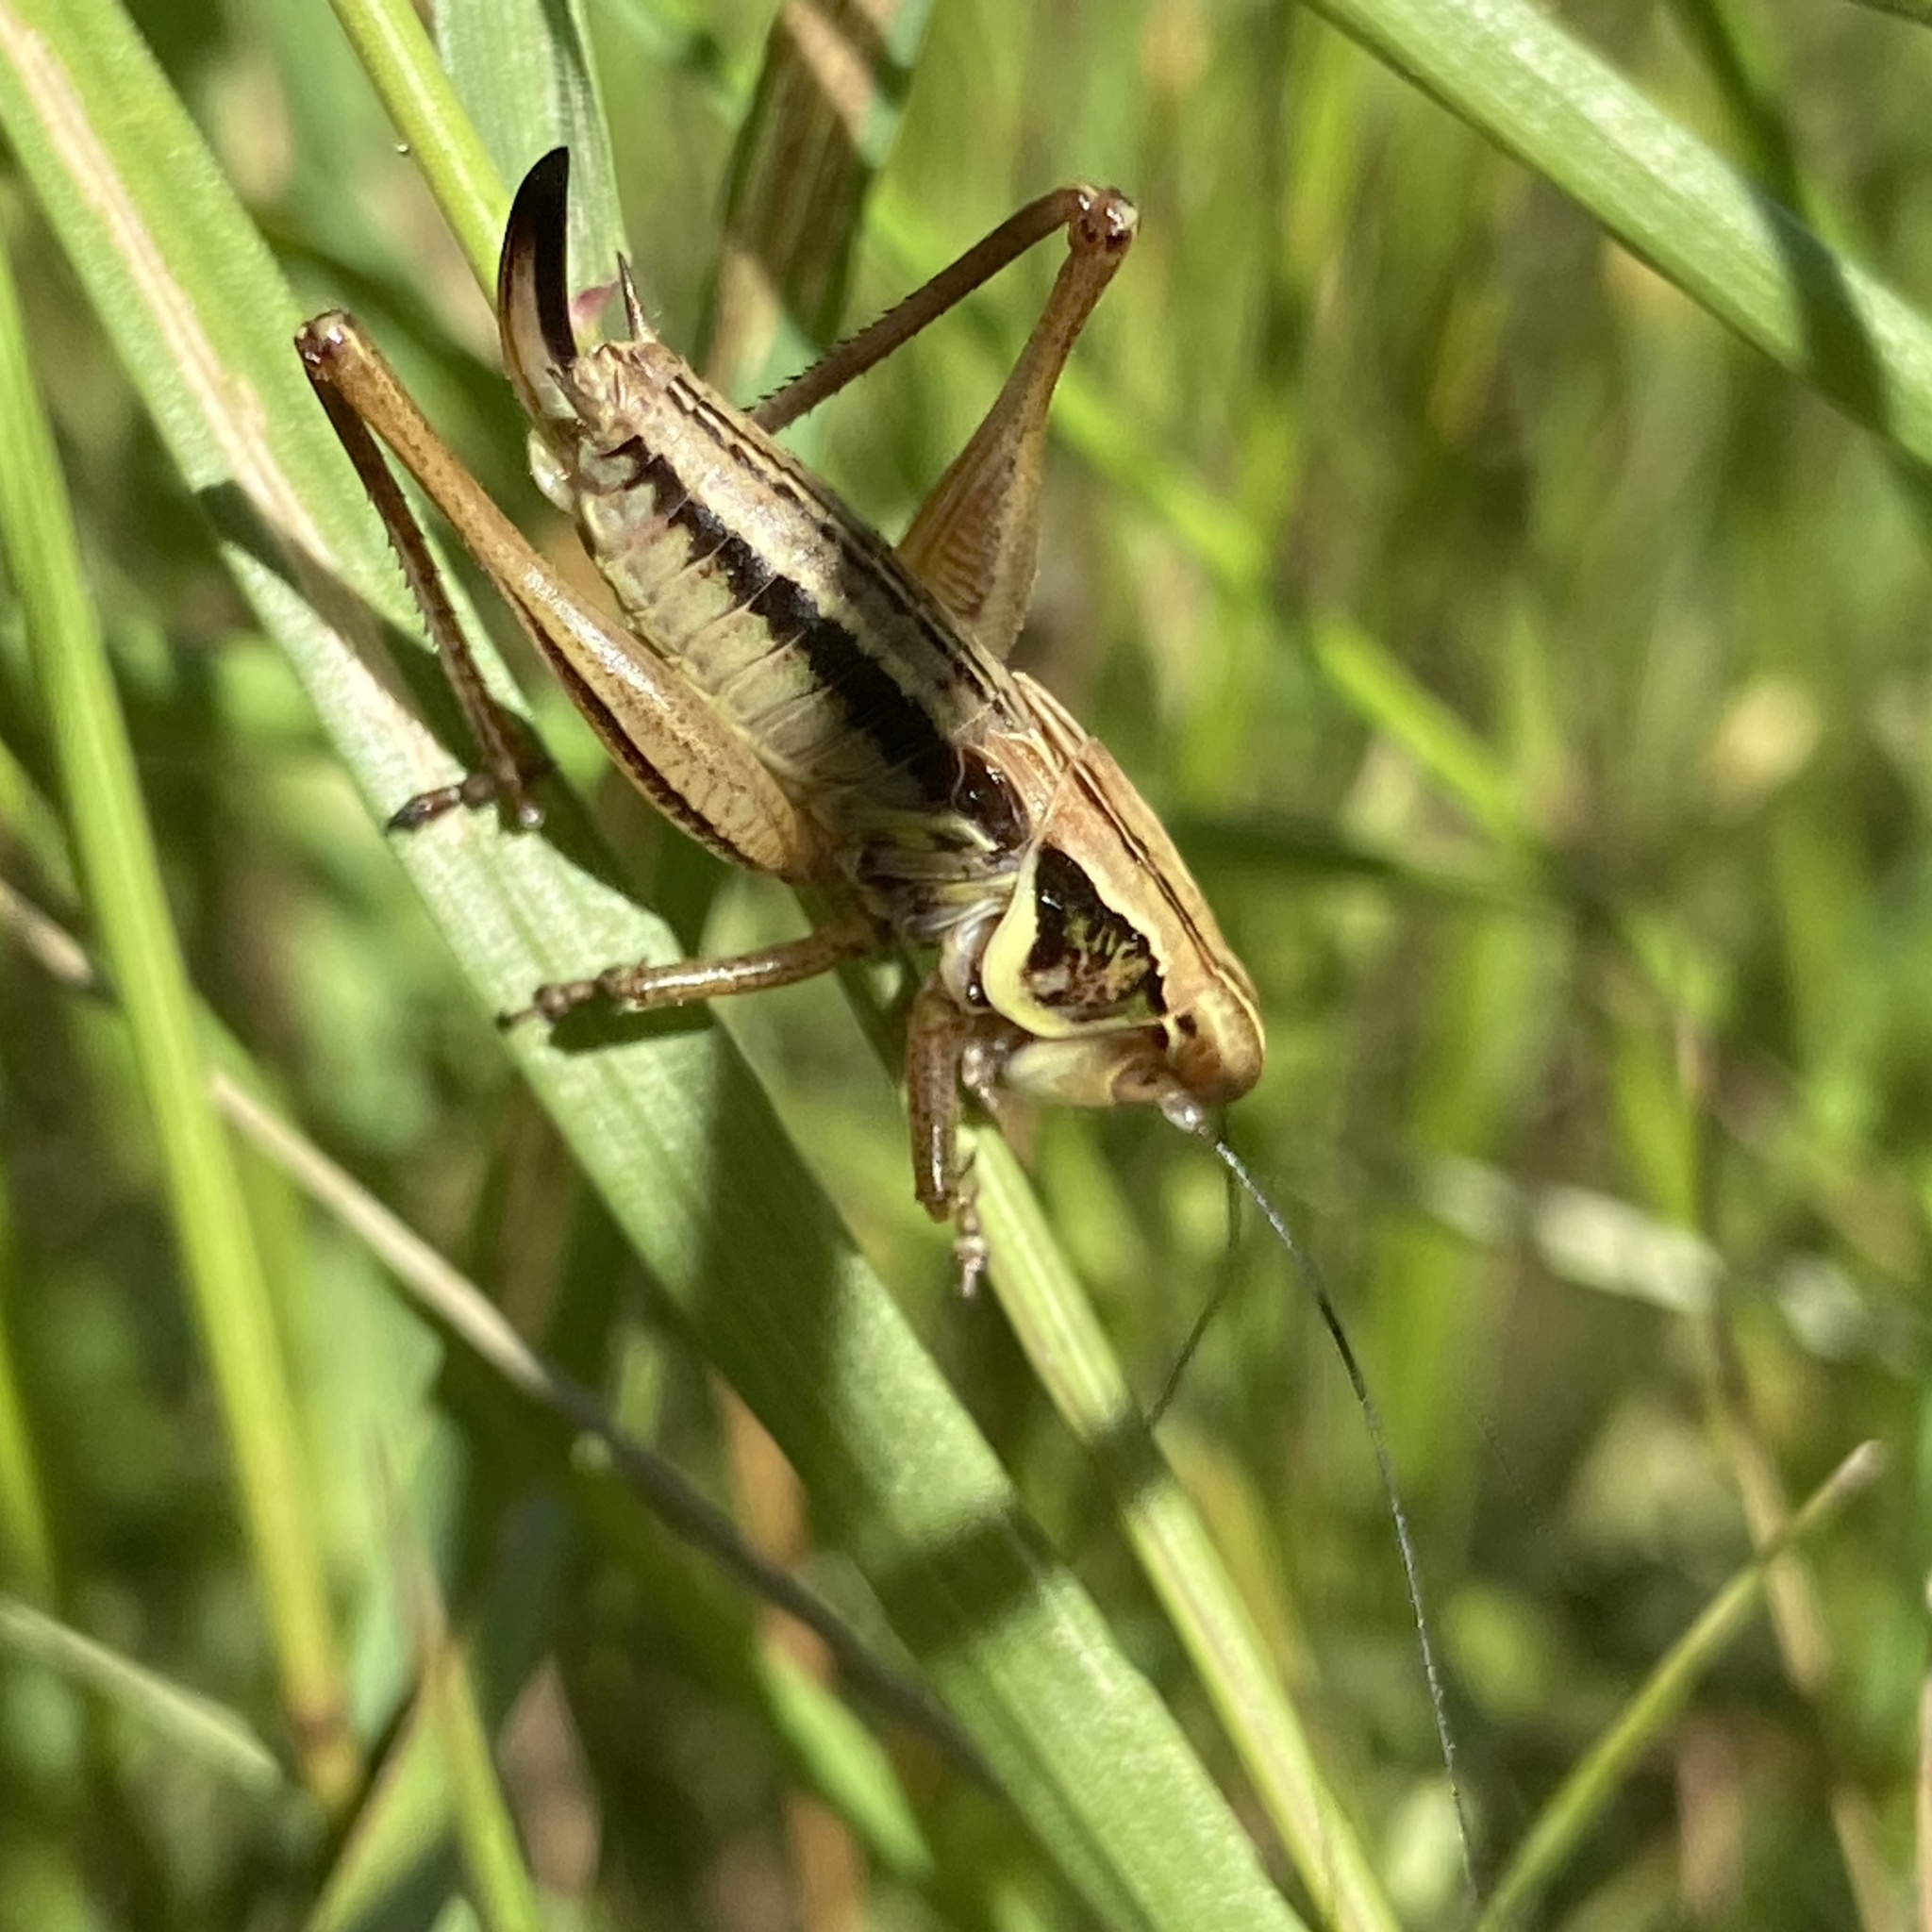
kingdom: Animalia
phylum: Arthropoda
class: Insecta
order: Orthoptera
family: Tettigoniidae
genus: Roeseliana
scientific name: Roeseliana roeselii
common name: Roesel's bush cricket
